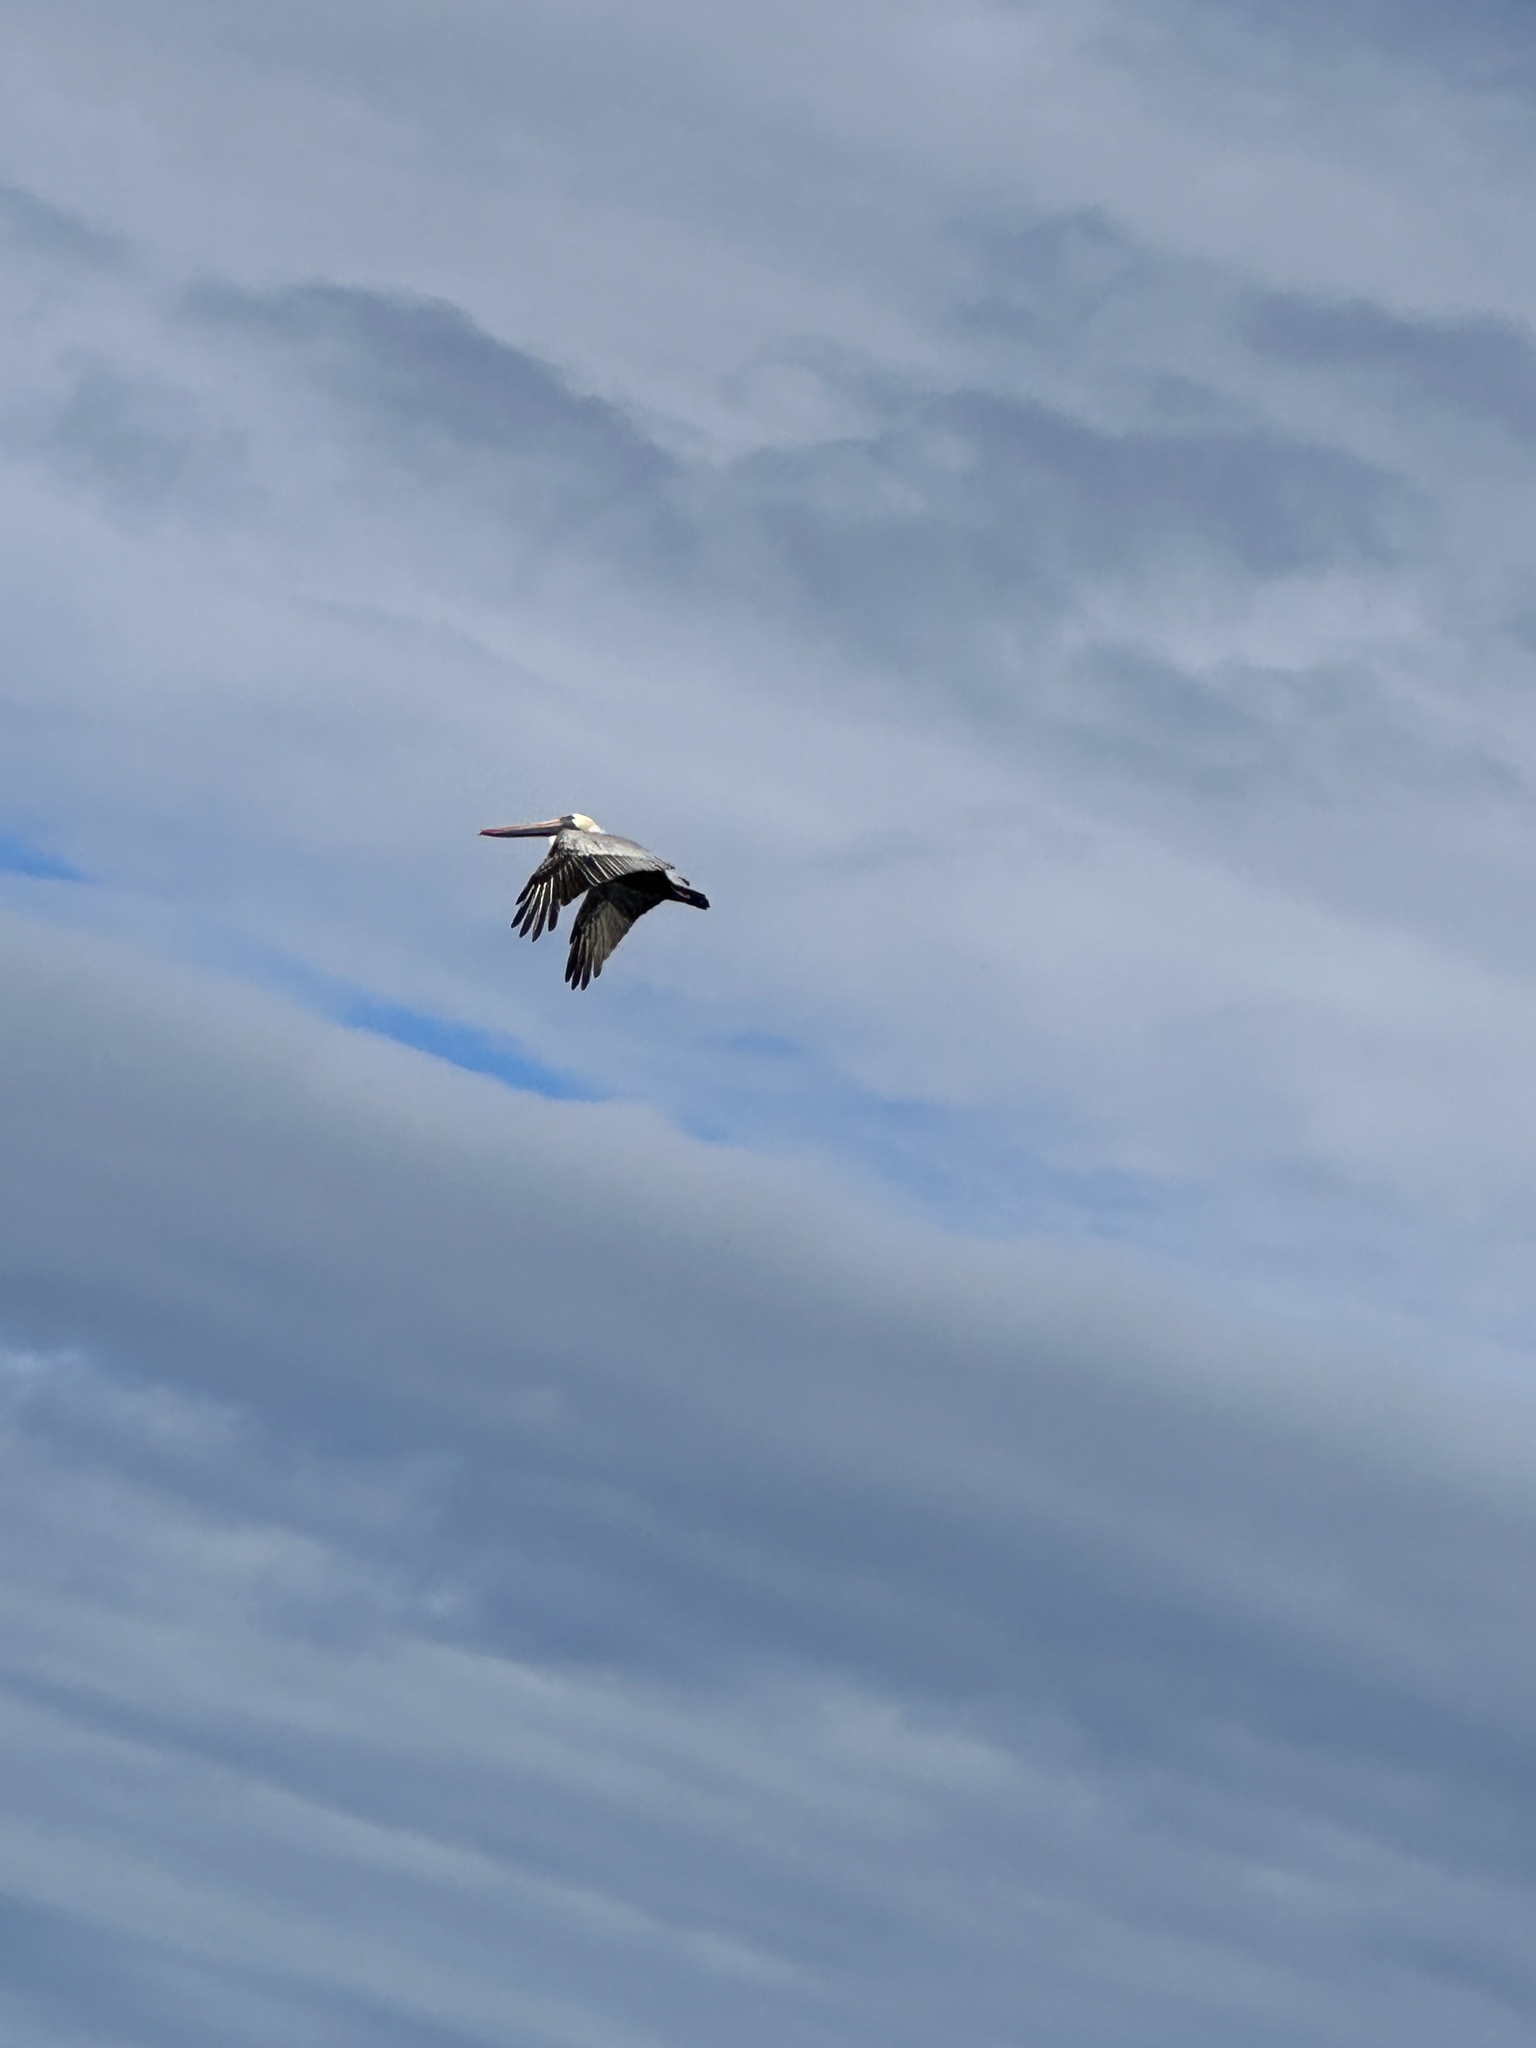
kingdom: Animalia
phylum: Chordata
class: Aves
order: Pelecaniformes
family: Pelecanidae
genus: Pelecanus
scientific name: Pelecanus occidentalis
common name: Brown pelican
